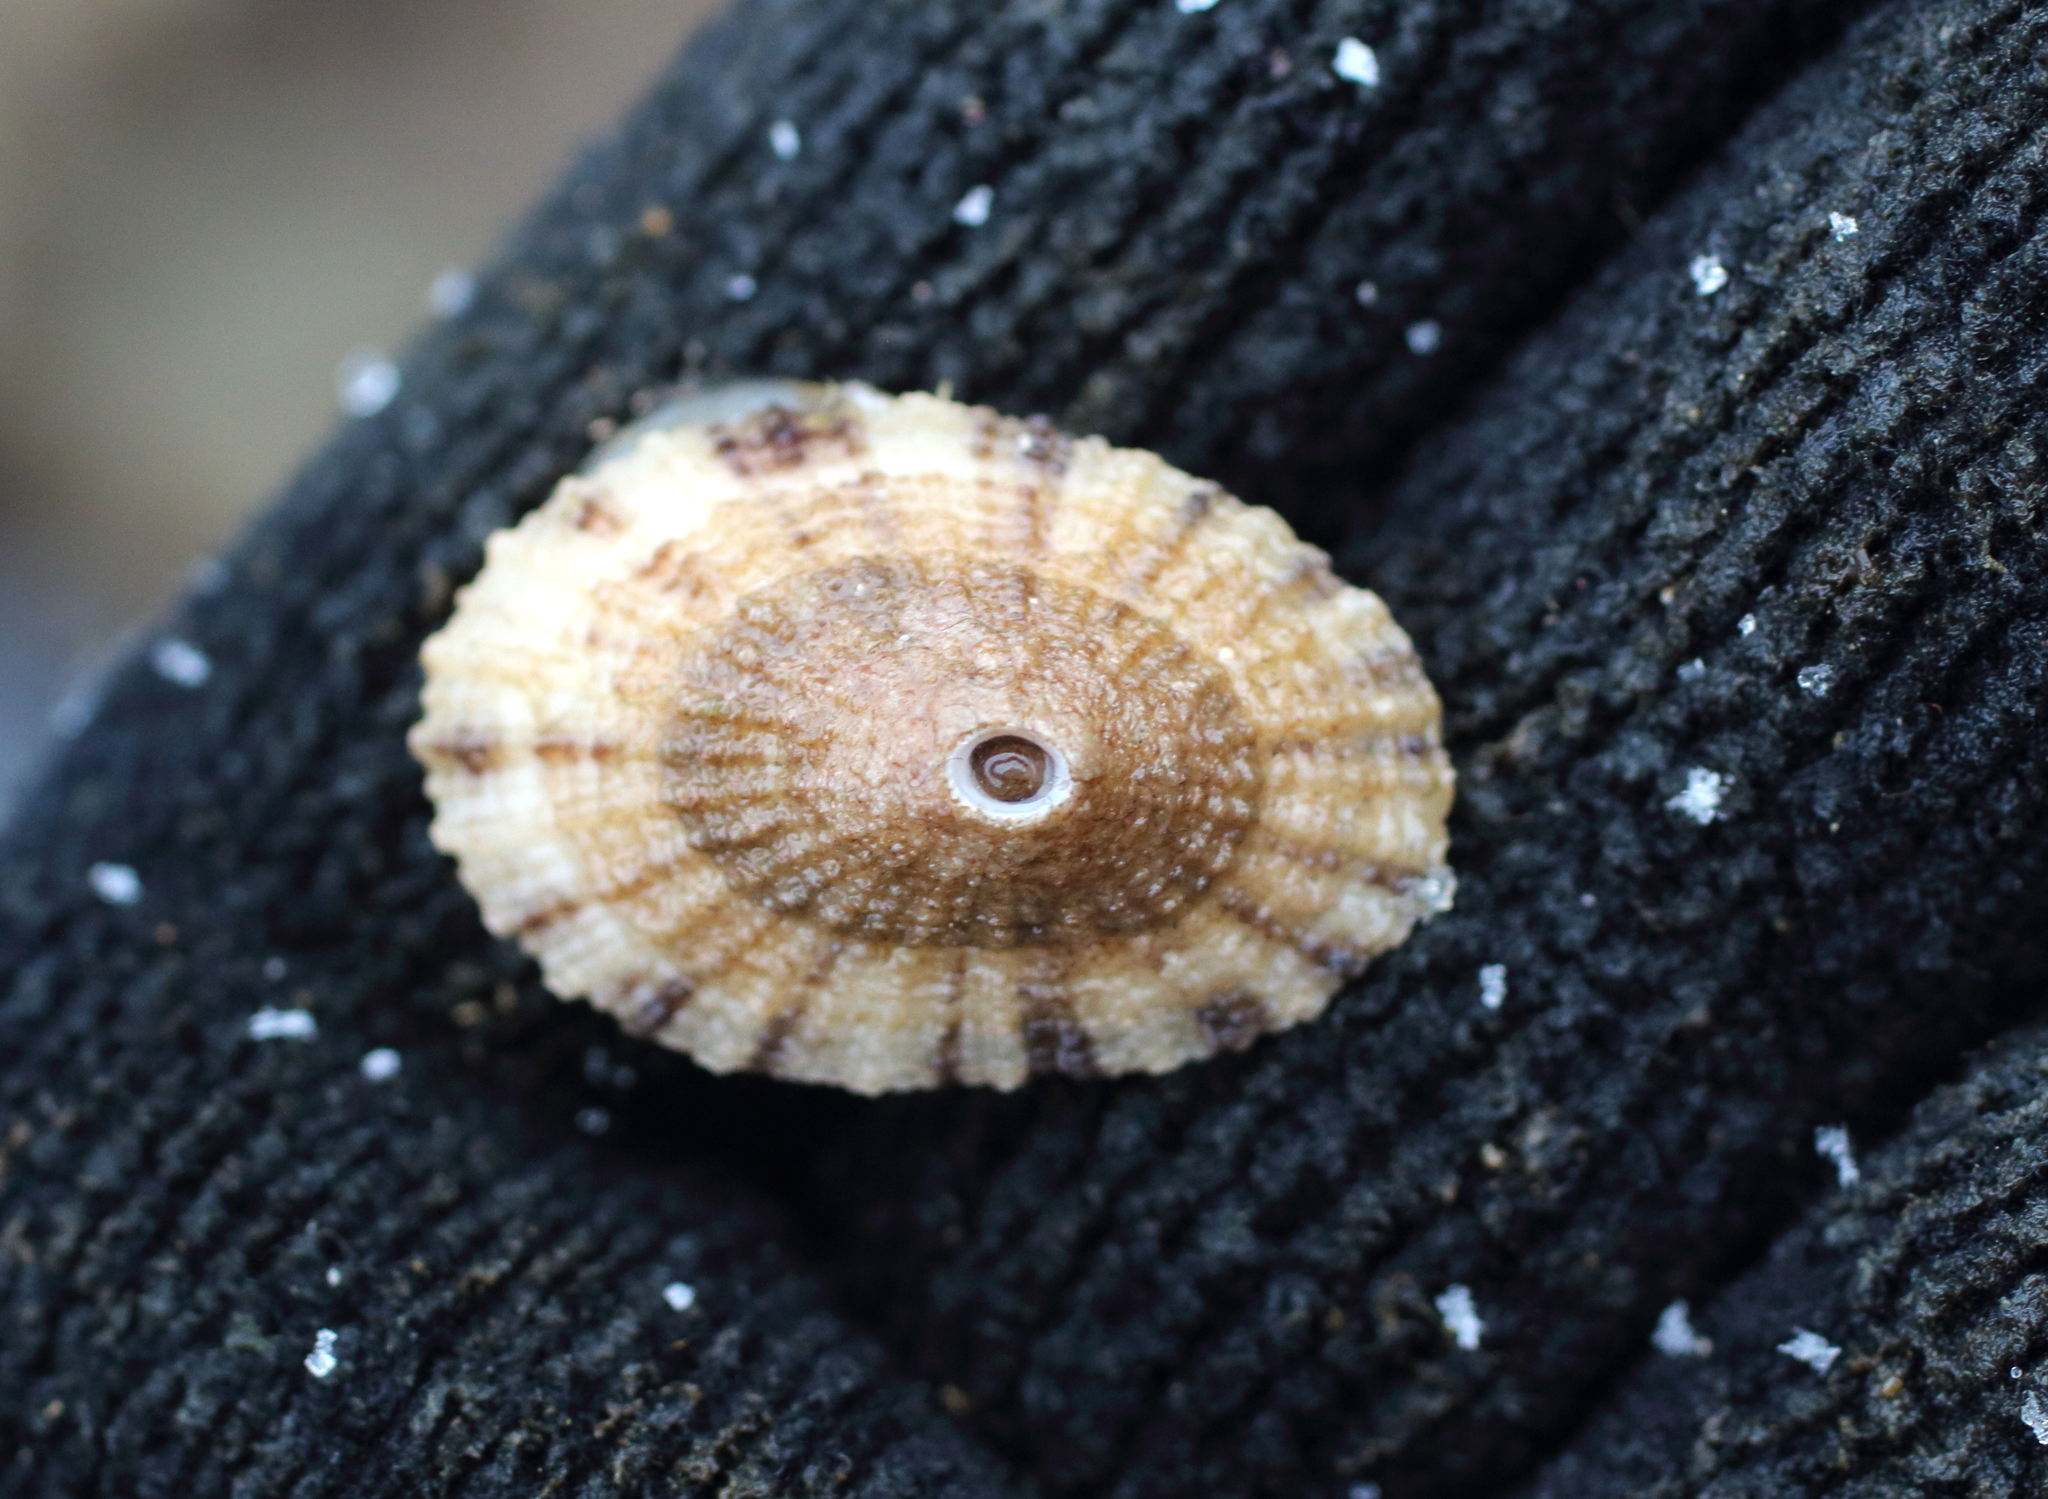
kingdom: Animalia
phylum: Mollusca
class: Gastropoda
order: Lepetellida
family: Fissurellidae
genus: Diodora
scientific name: Diodora aspera
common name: Rough keyhole limpet
